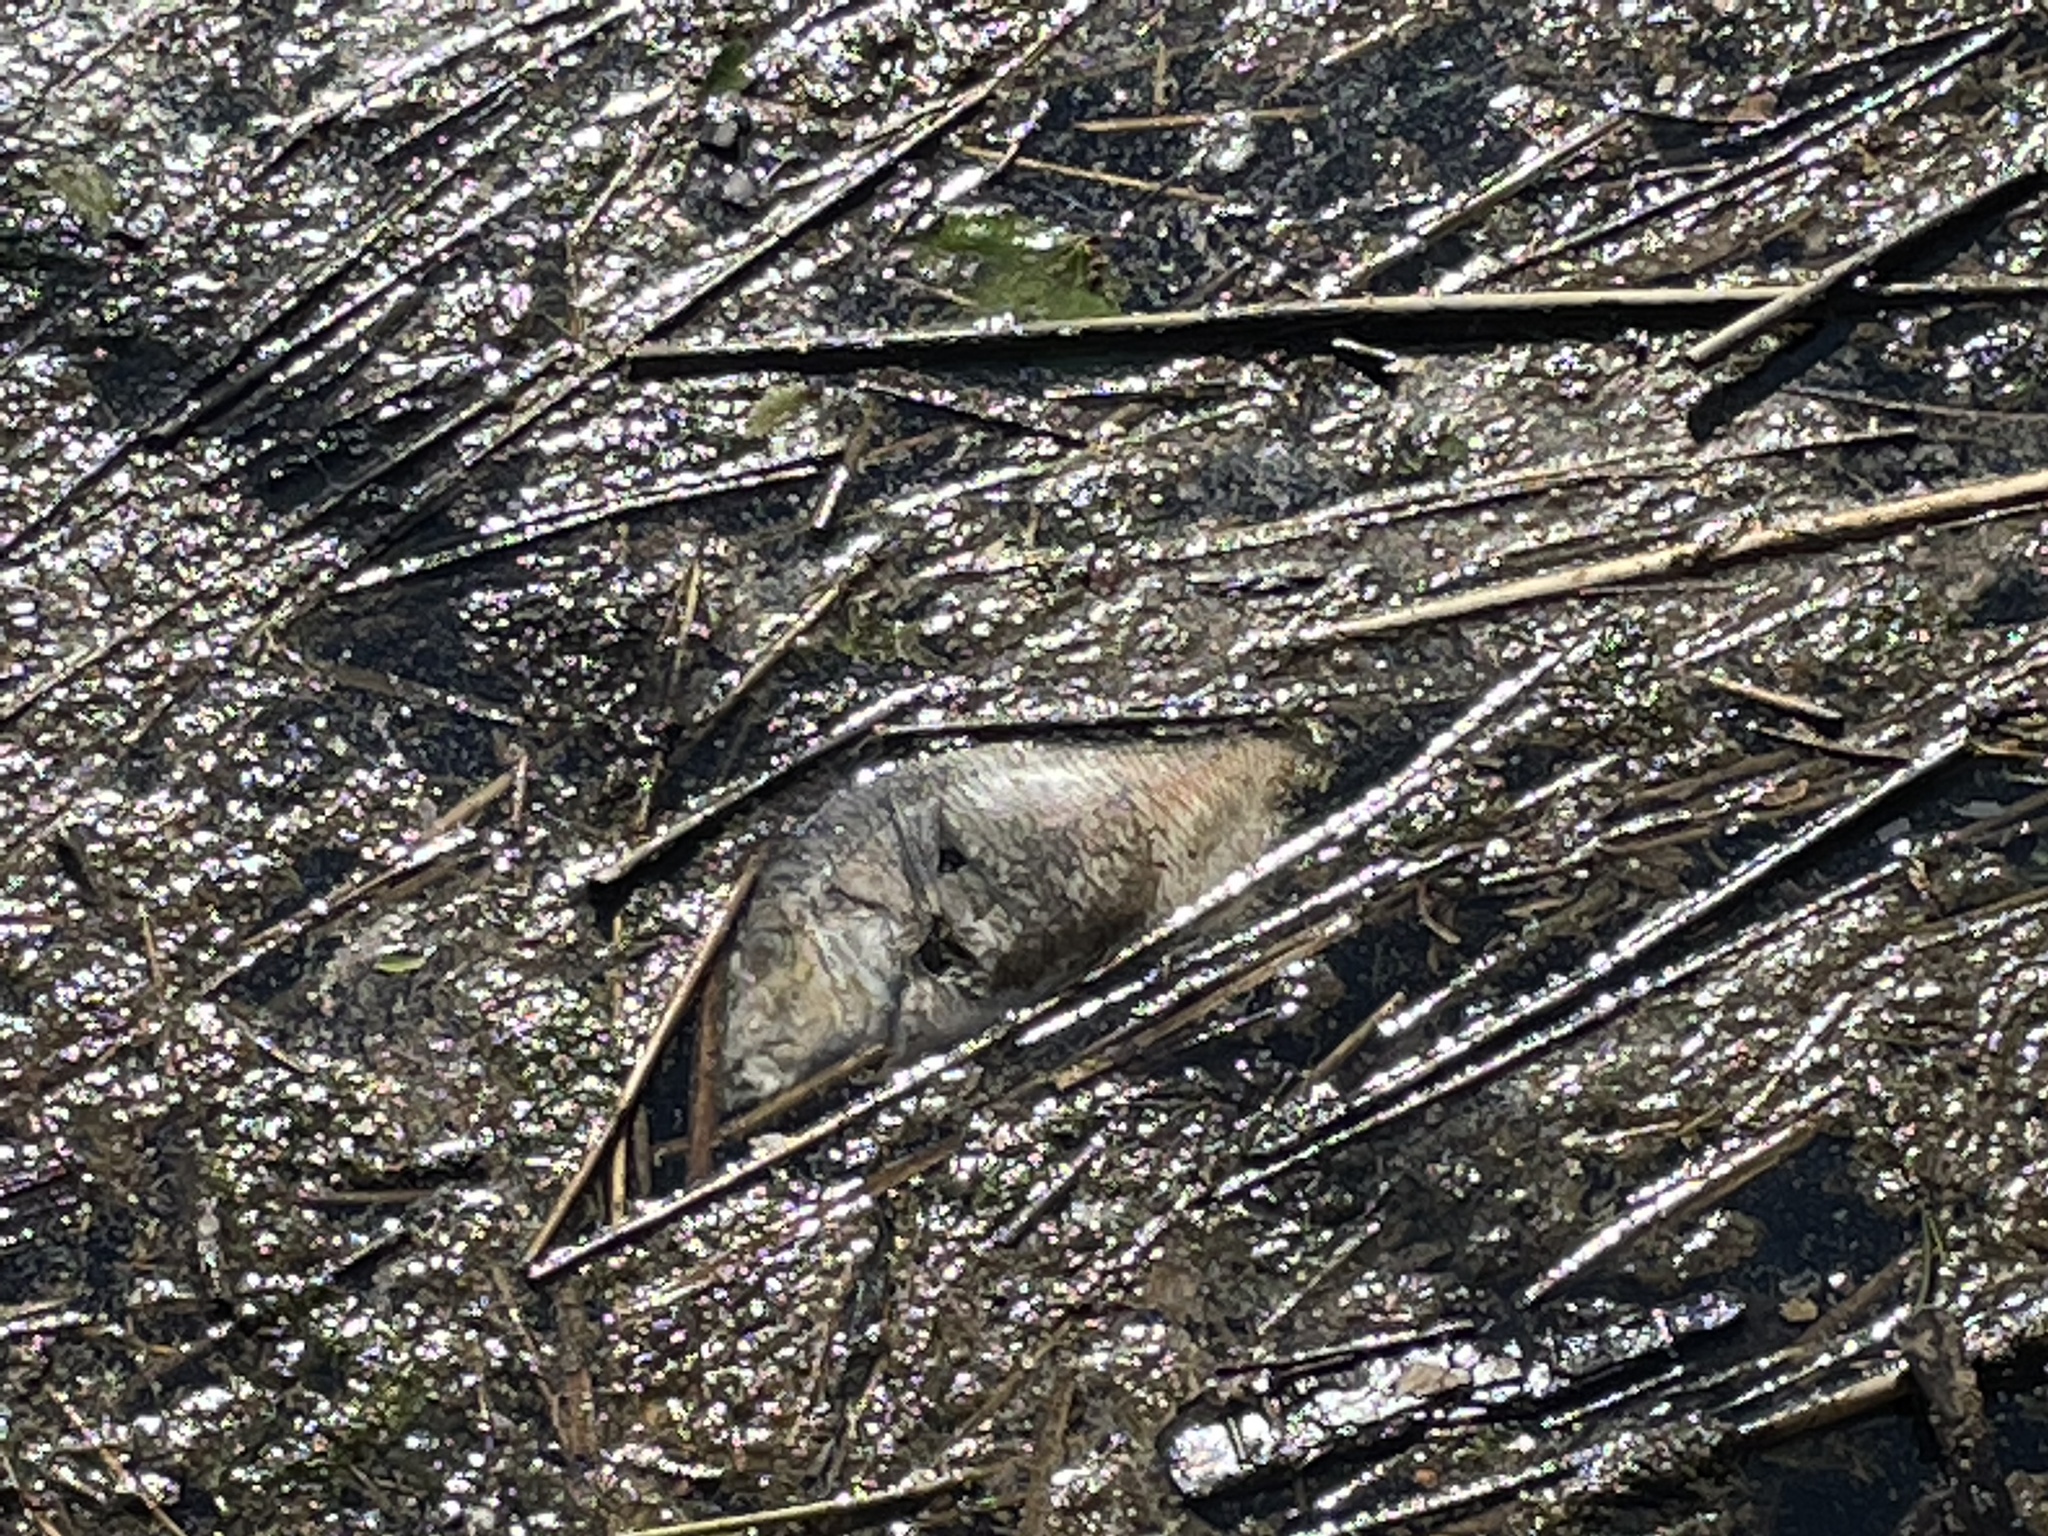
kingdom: Animalia
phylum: Chordata
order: Perciformes
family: Sparidae
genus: Stenotomus
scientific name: Stenotomus chrysops
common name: Scup
